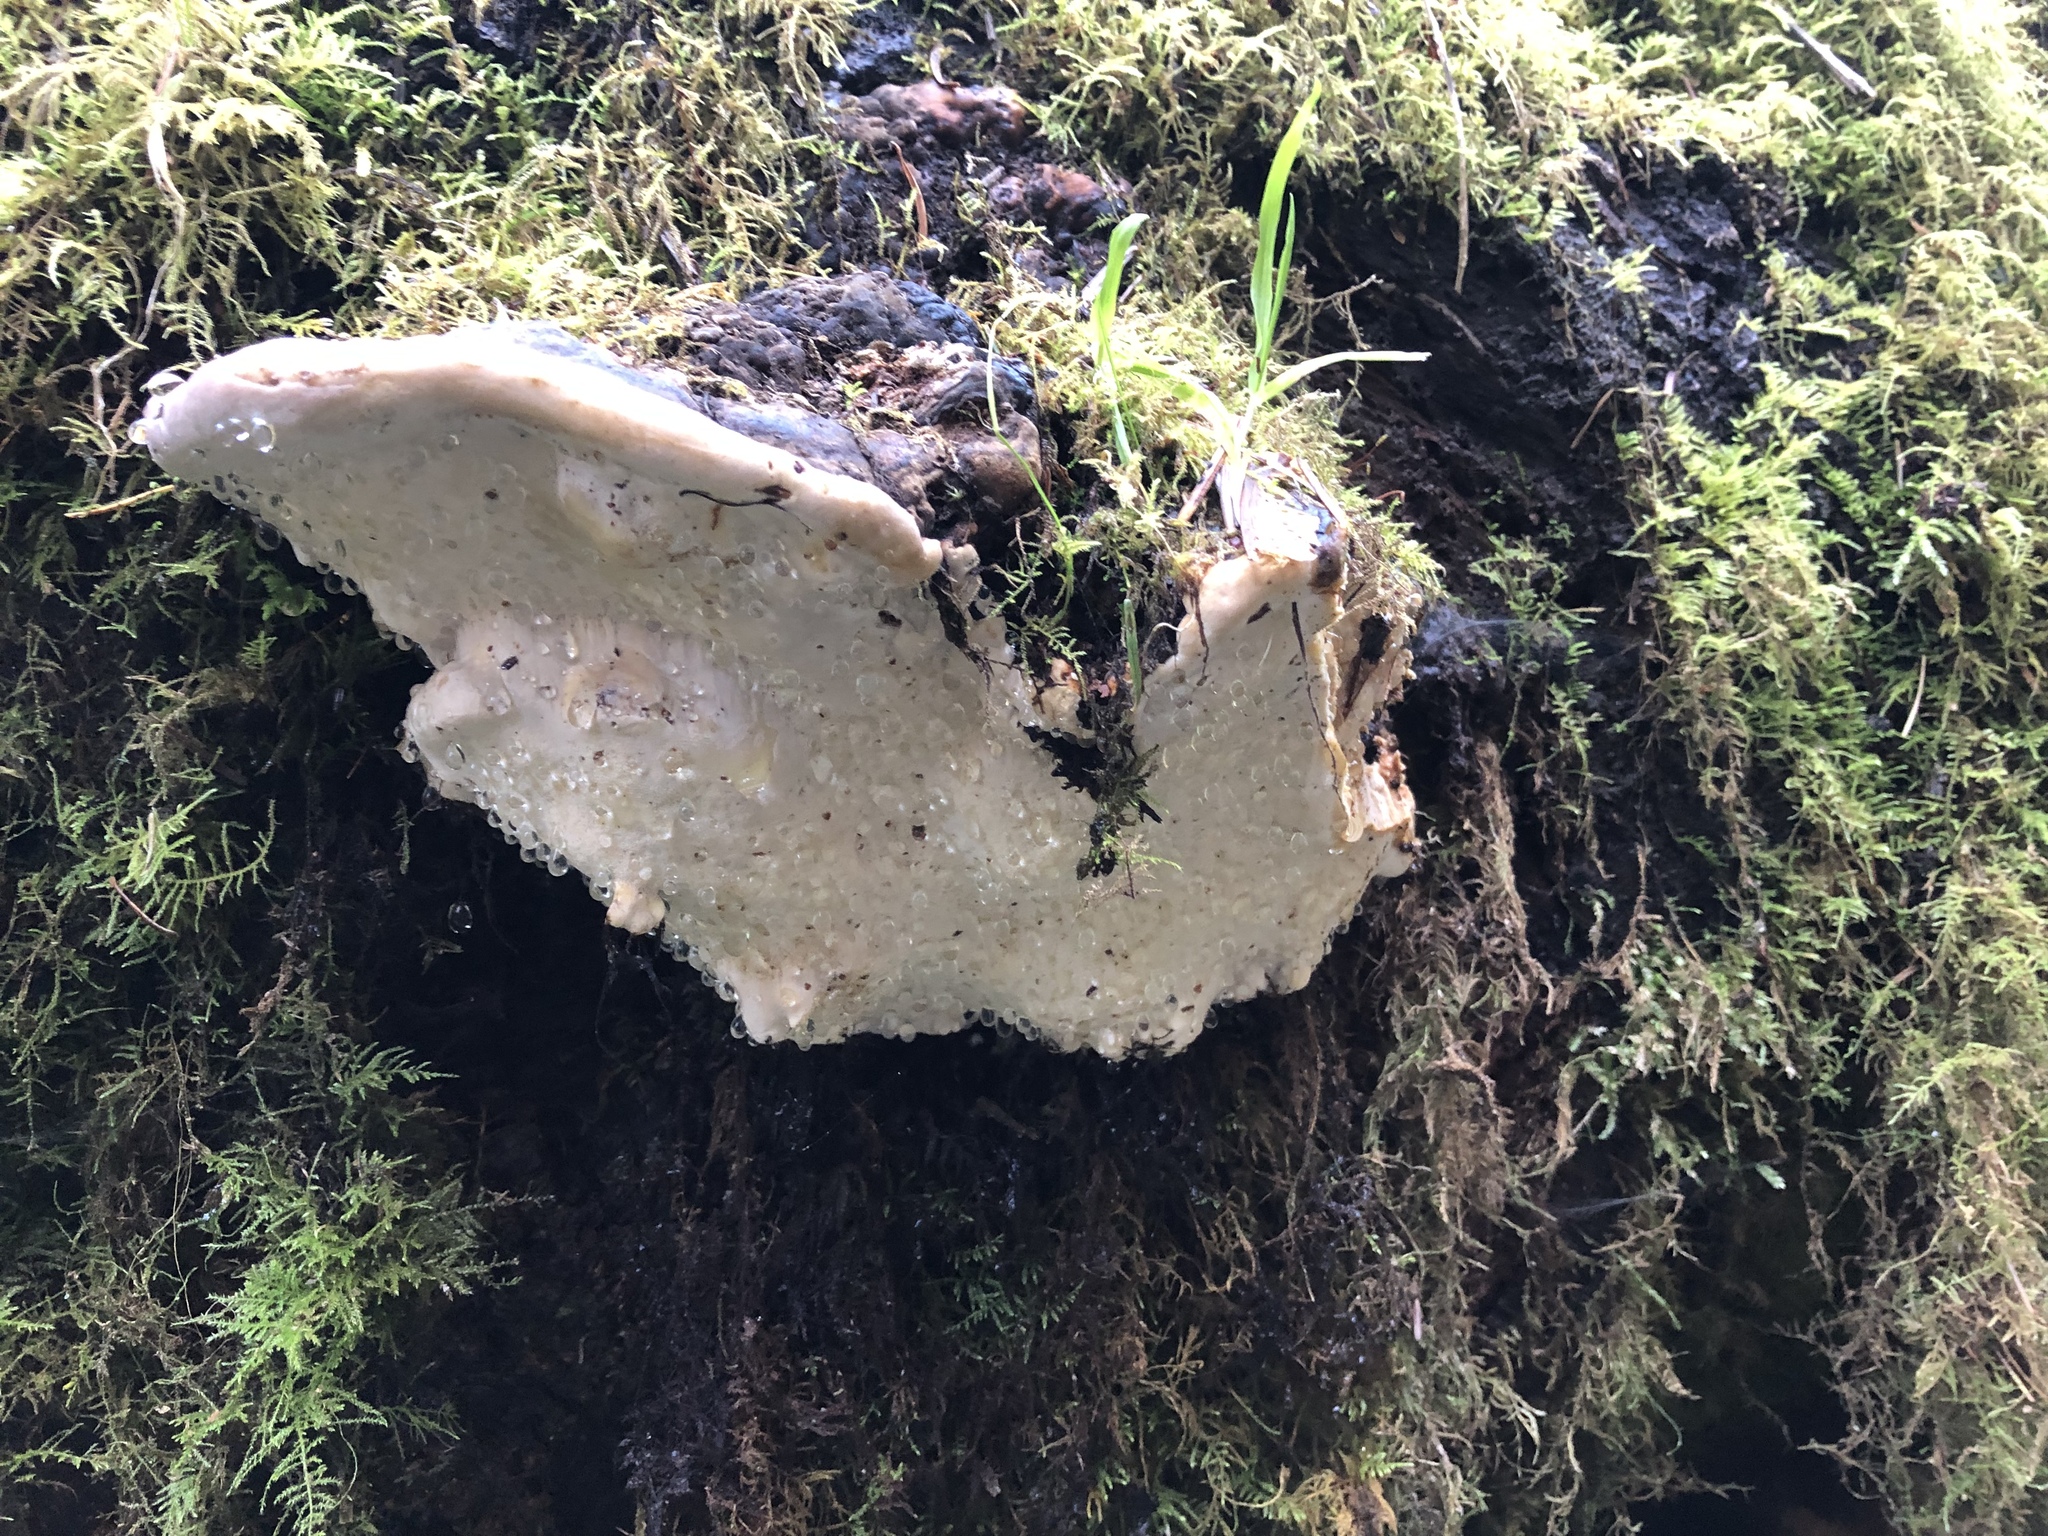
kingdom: Fungi
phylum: Basidiomycota
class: Agaricomycetes
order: Polyporales
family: Fomitopsidaceae
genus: Fomitopsis
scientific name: Fomitopsis ochracea
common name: American brown fomitopsis
